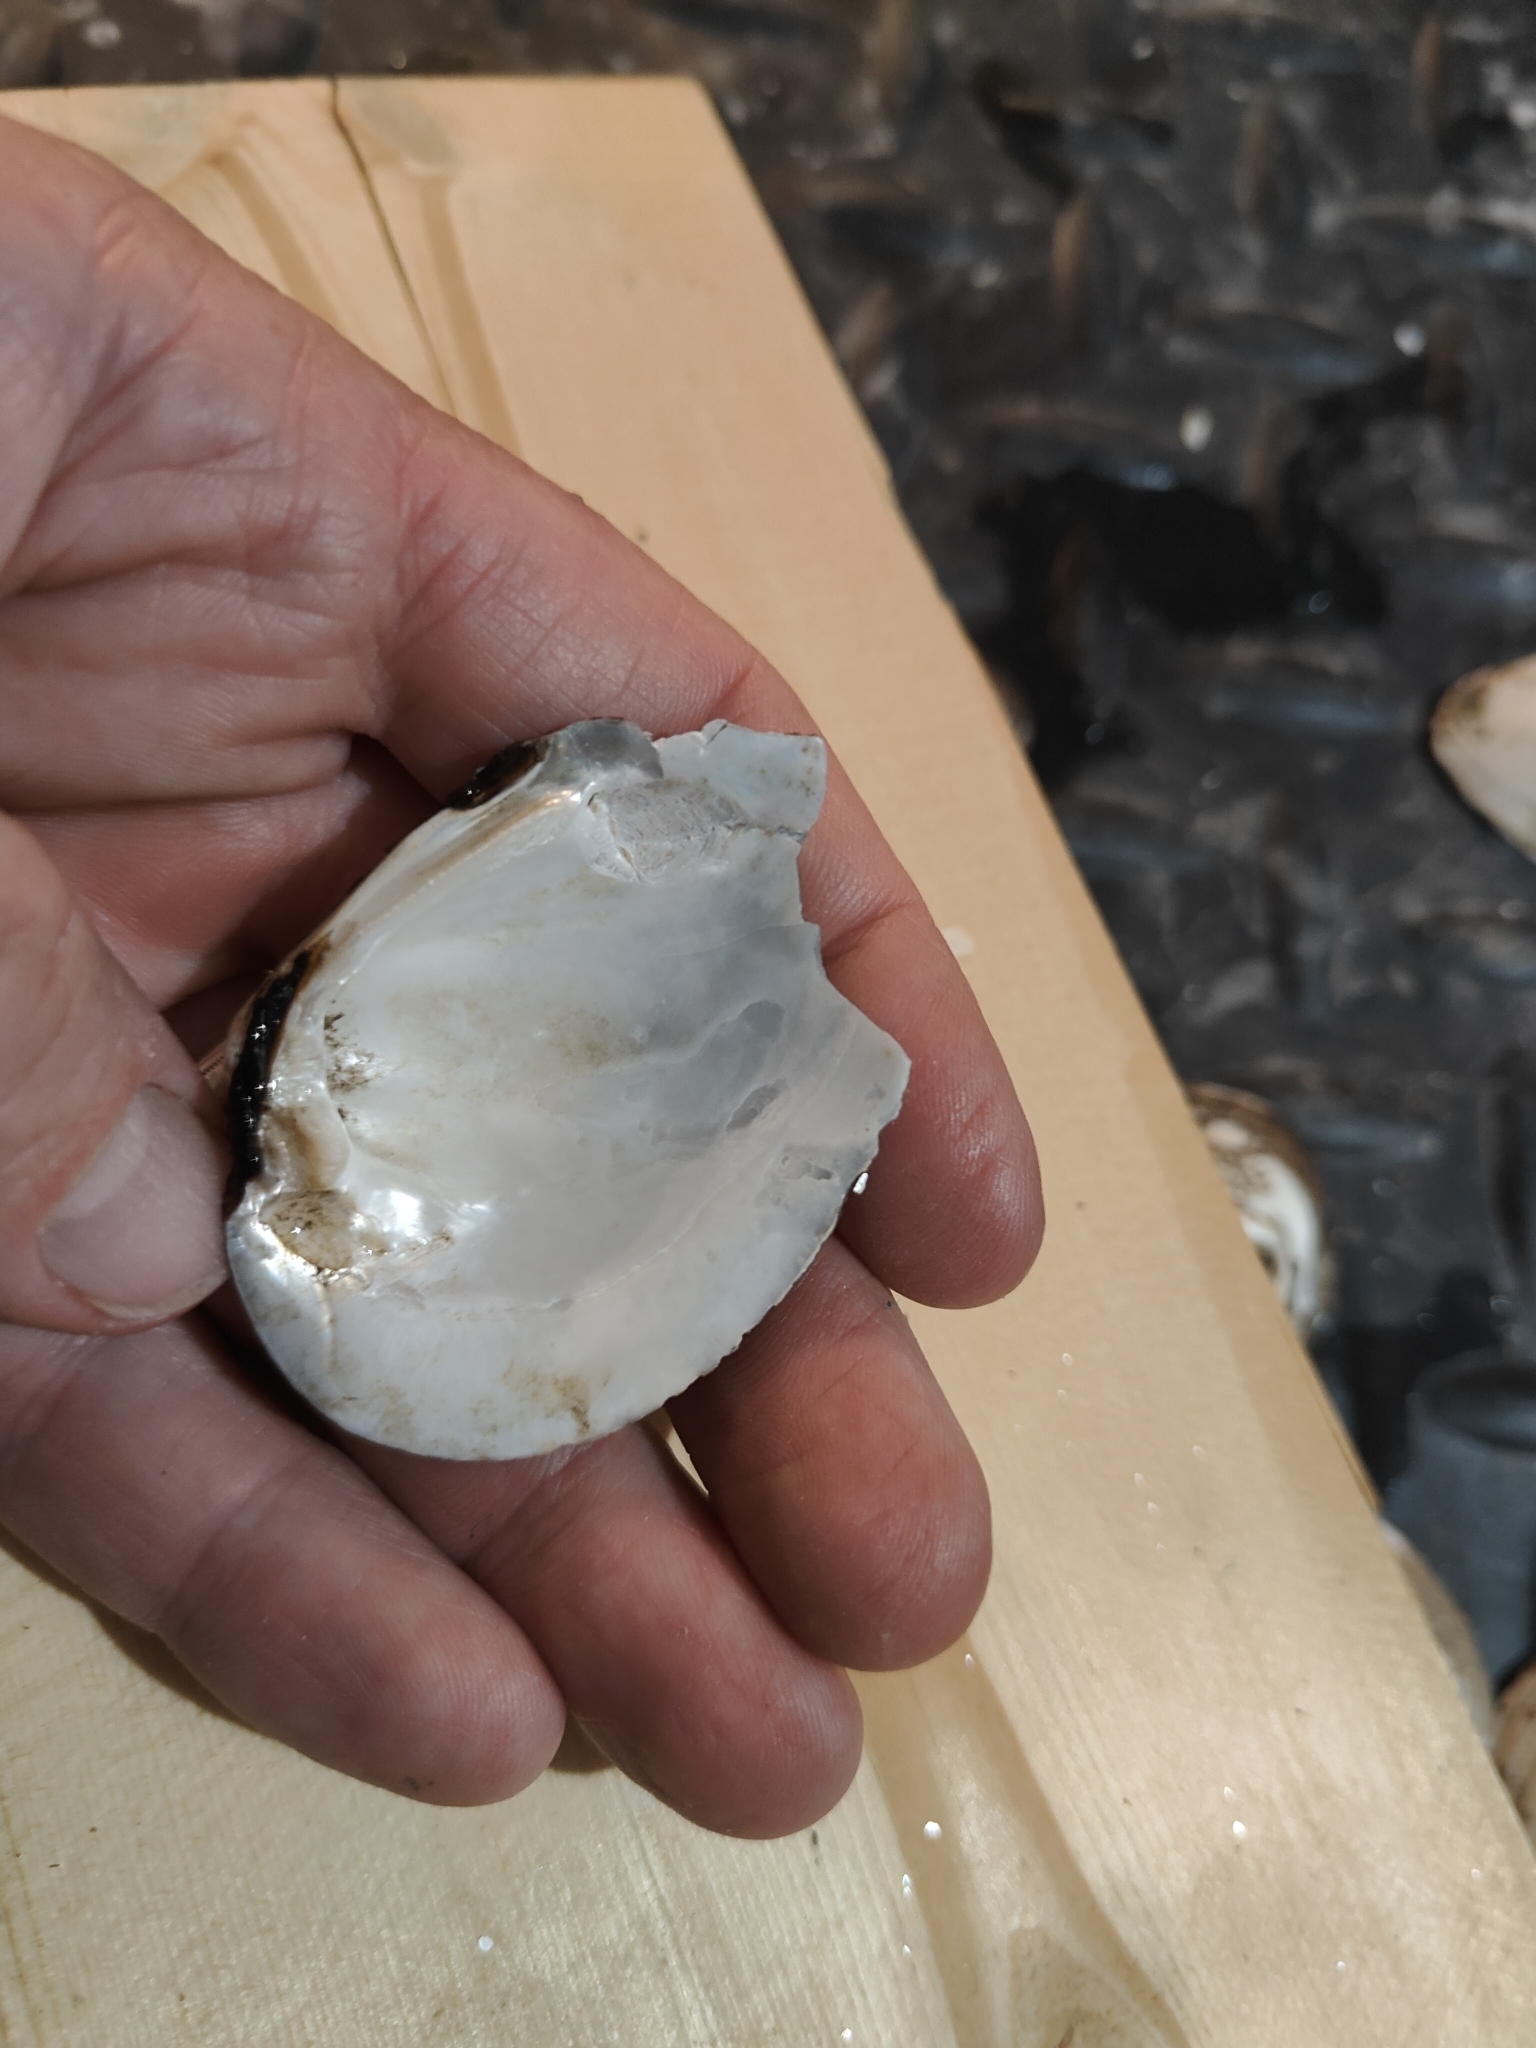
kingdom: Animalia
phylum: Mollusca
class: Bivalvia
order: Unionida
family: Unionidae
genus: Fusconaia
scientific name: Fusconaia flava
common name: Wabash pigtoe
